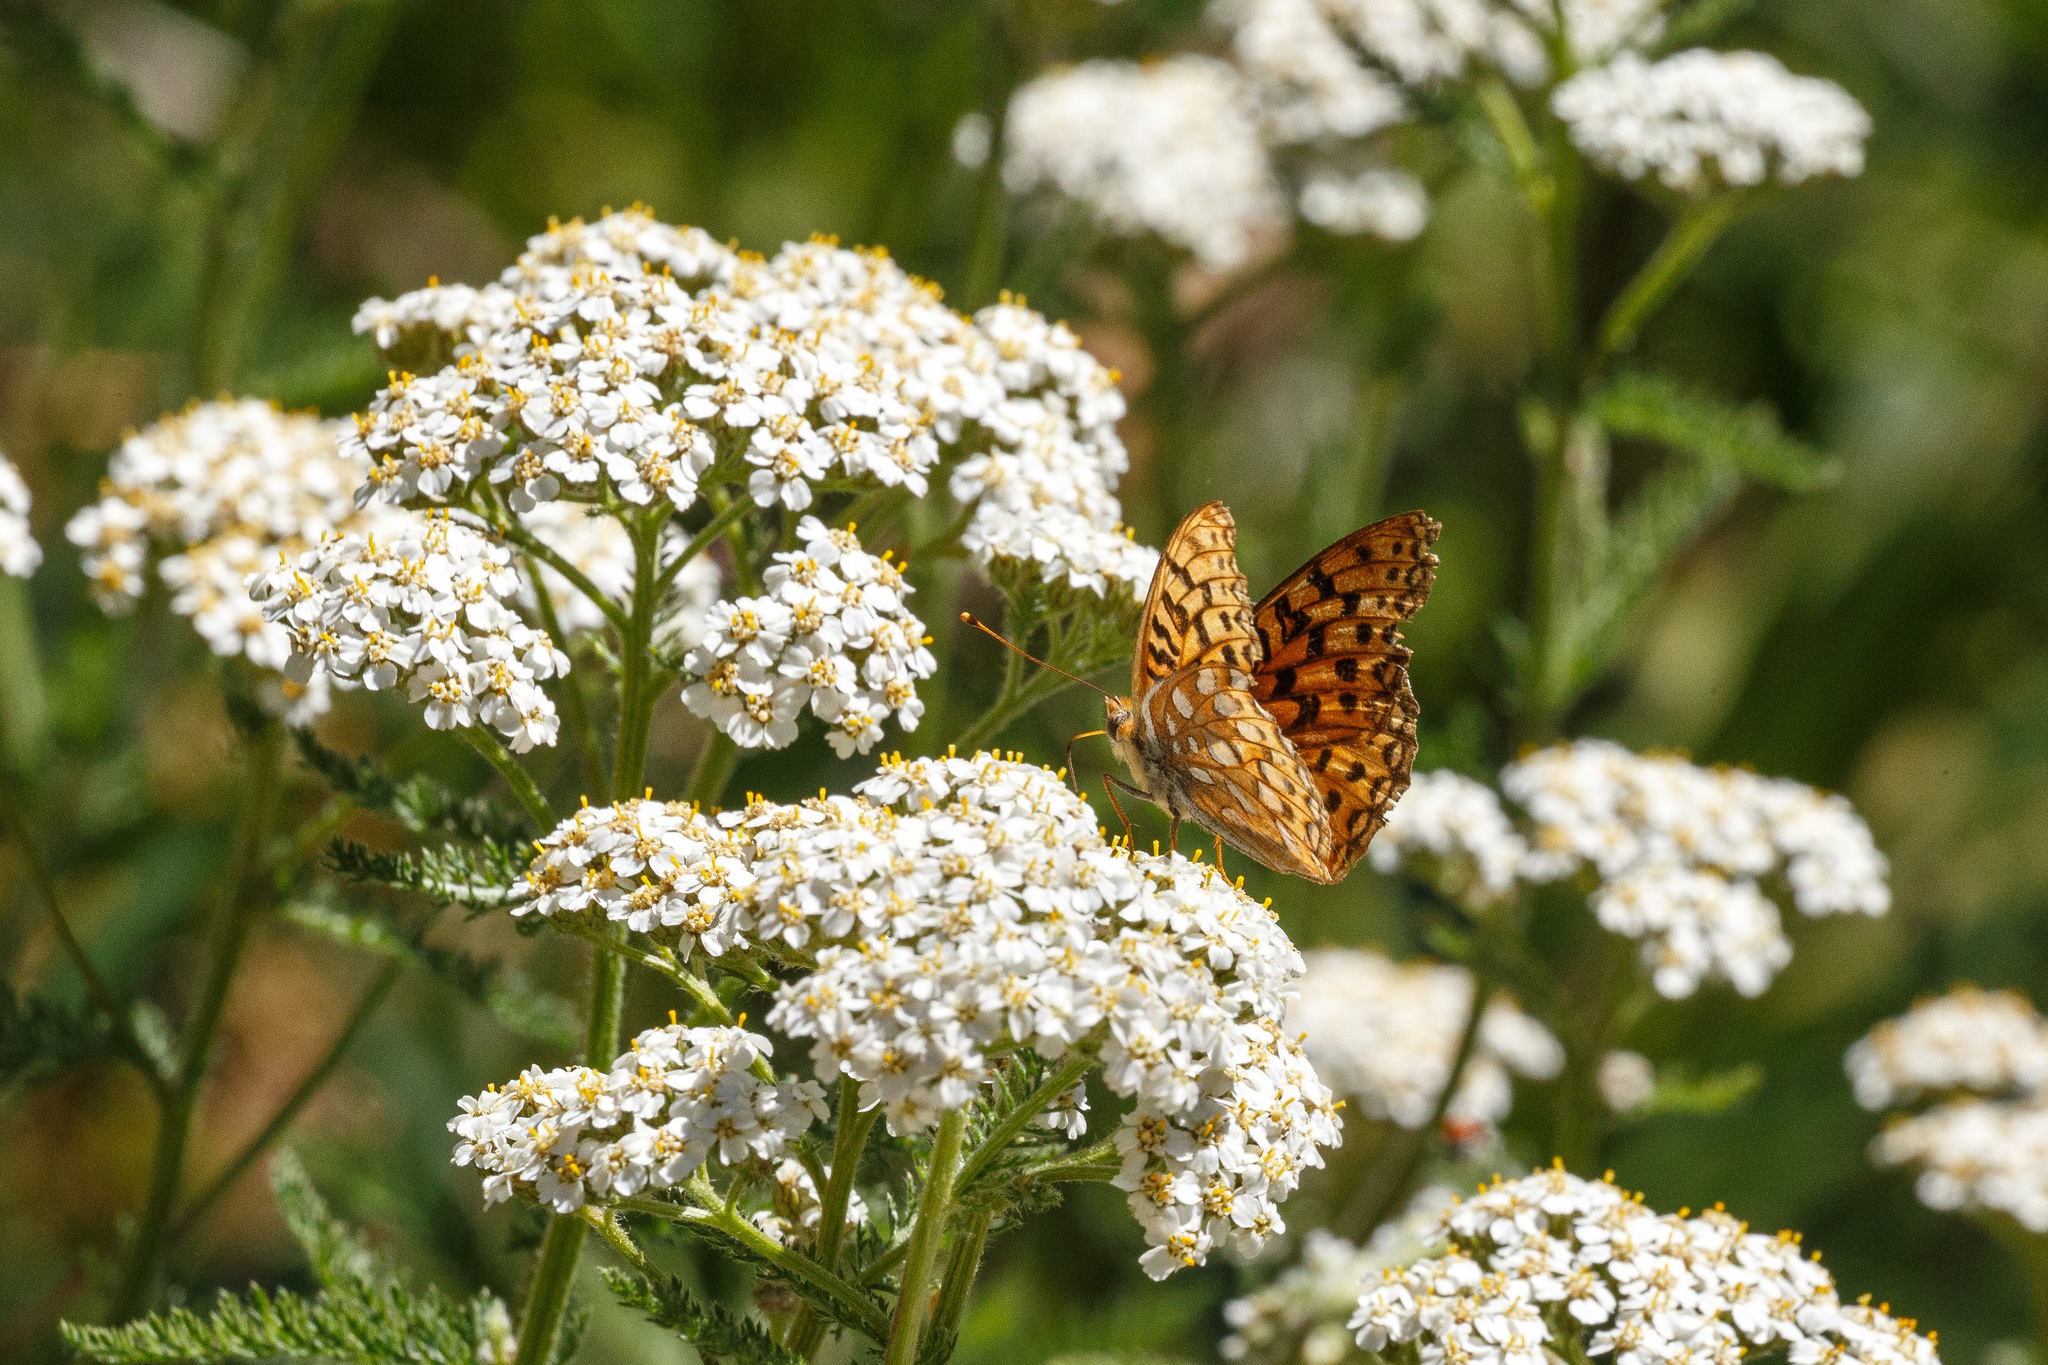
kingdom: Animalia
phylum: Arthropoda
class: Insecta
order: Lepidoptera
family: Nymphalidae
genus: Argynnis
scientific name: Argynnis coronis
